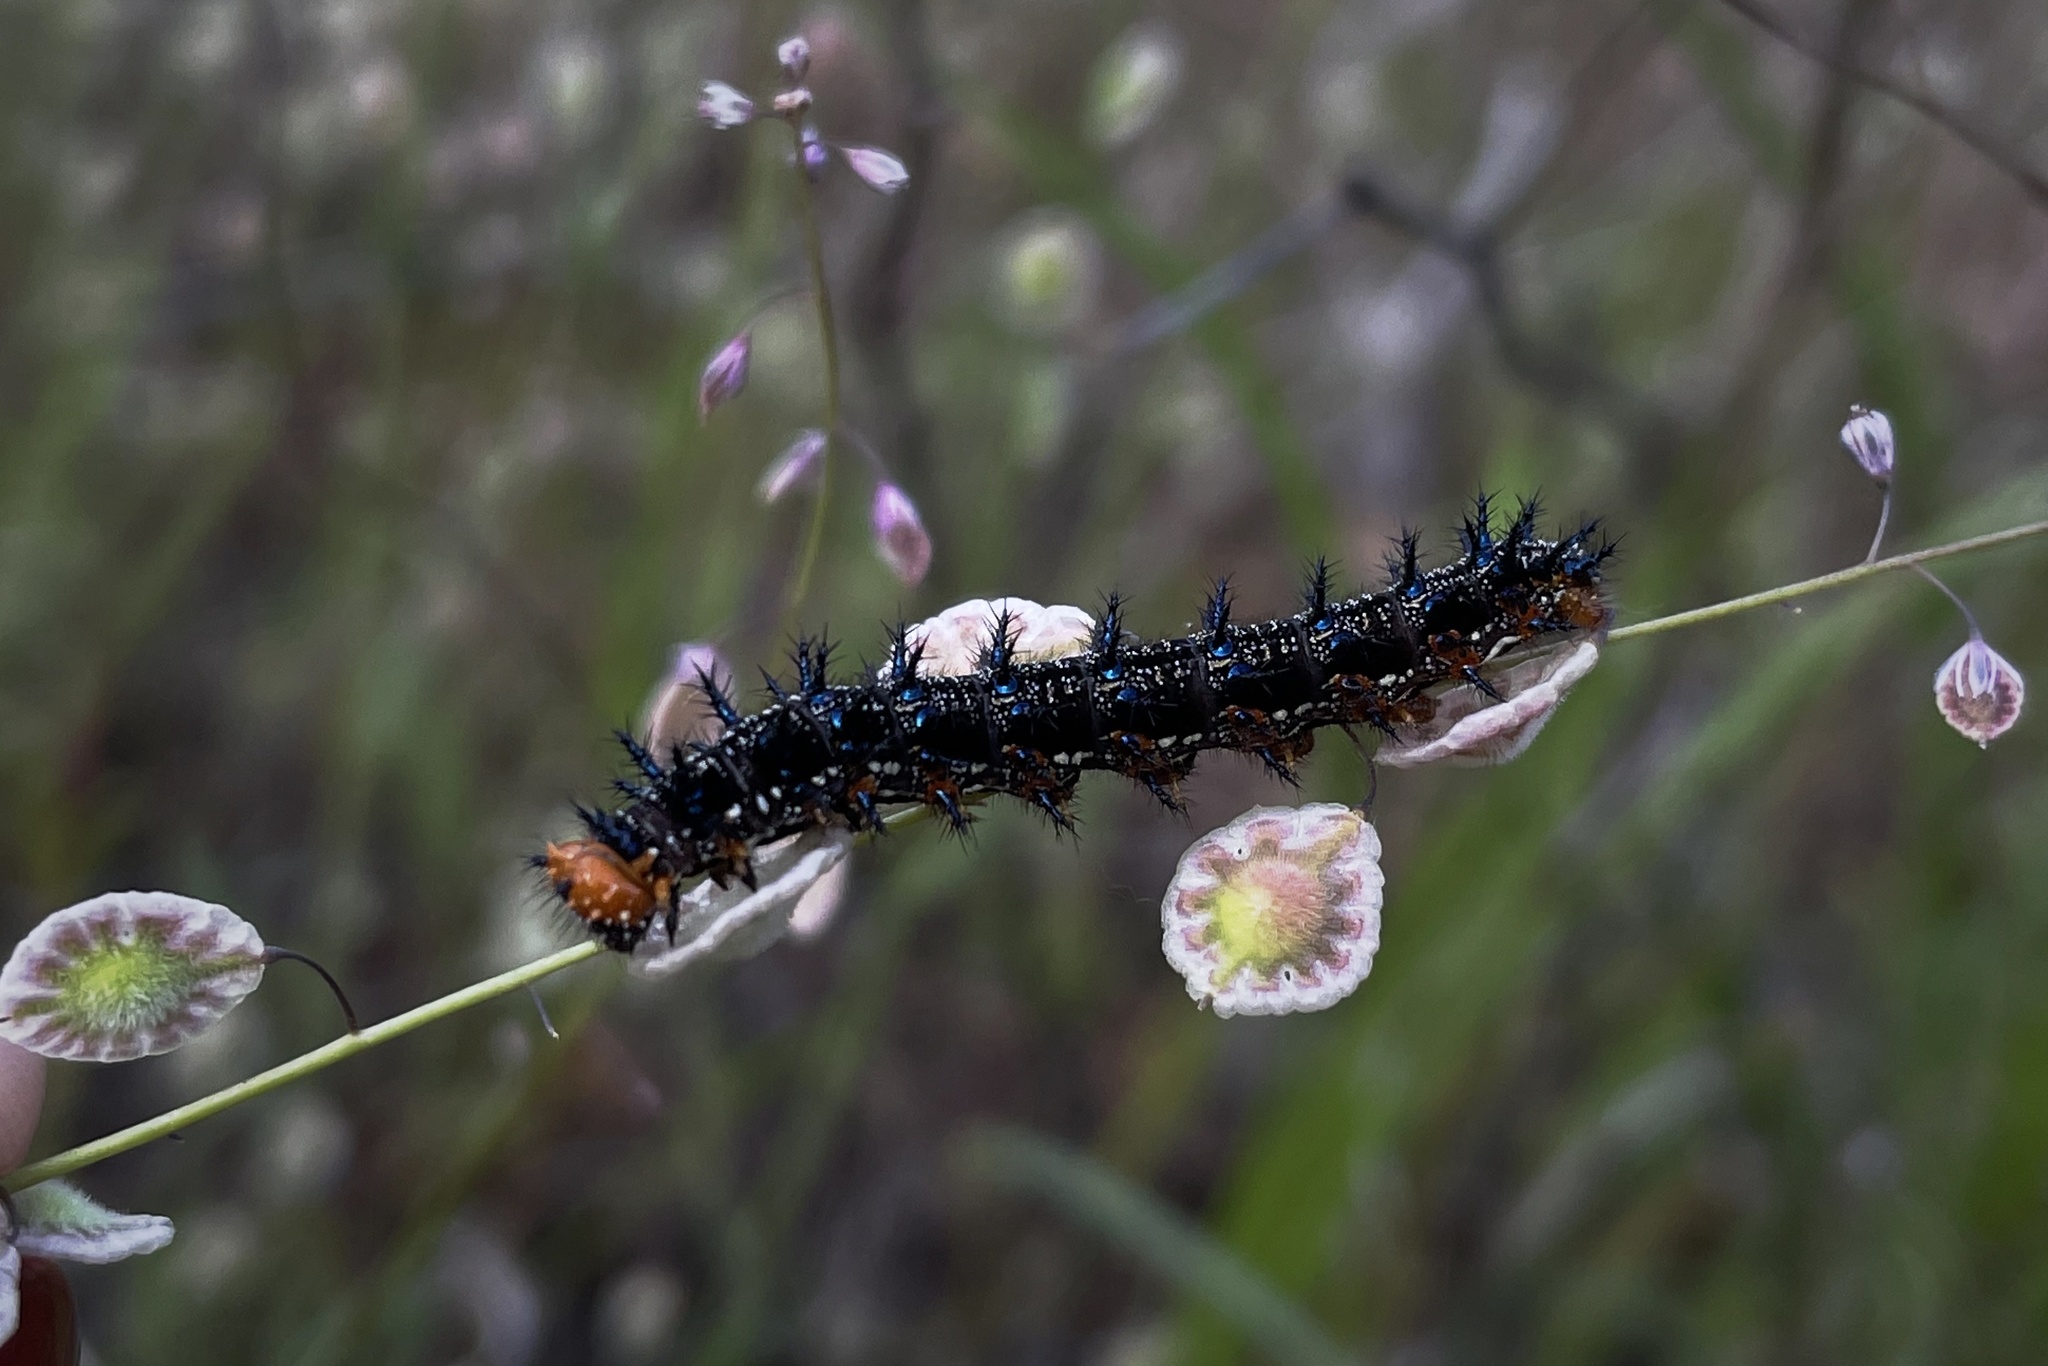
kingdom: Animalia
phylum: Arthropoda
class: Insecta
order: Lepidoptera
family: Nymphalidae
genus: Junonia
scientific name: Junonia grisea
